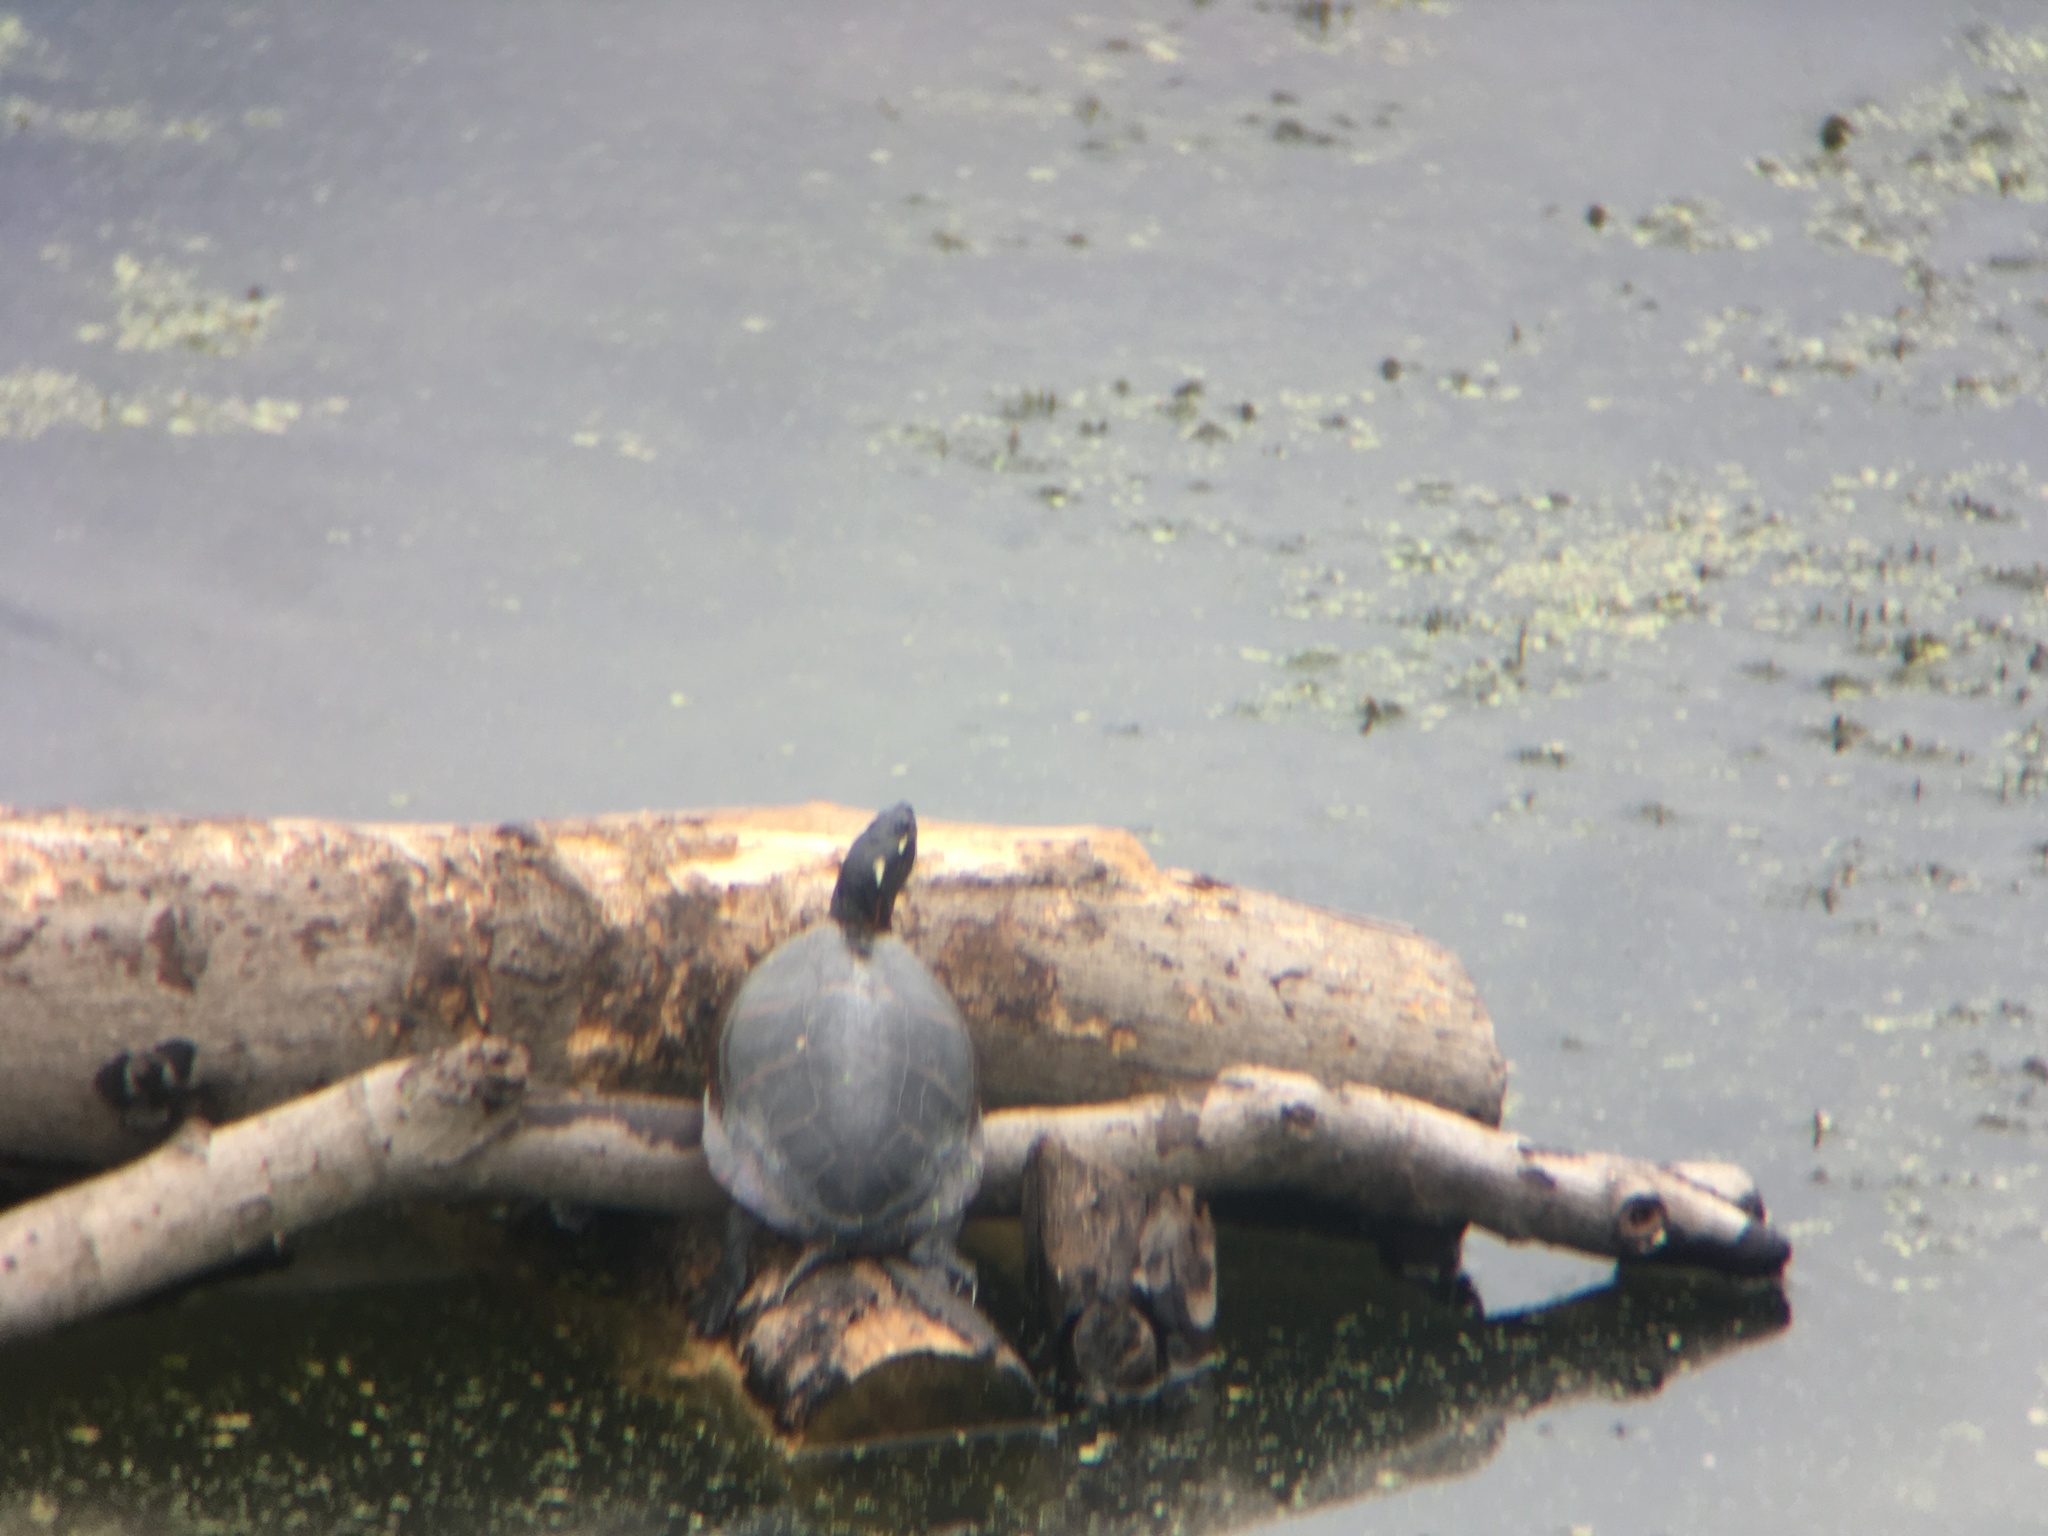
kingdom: Animalia
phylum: Chordata
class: Testudines
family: Emydidae
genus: Chrysemys
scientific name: Chrysemys picta
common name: Painted turtle
